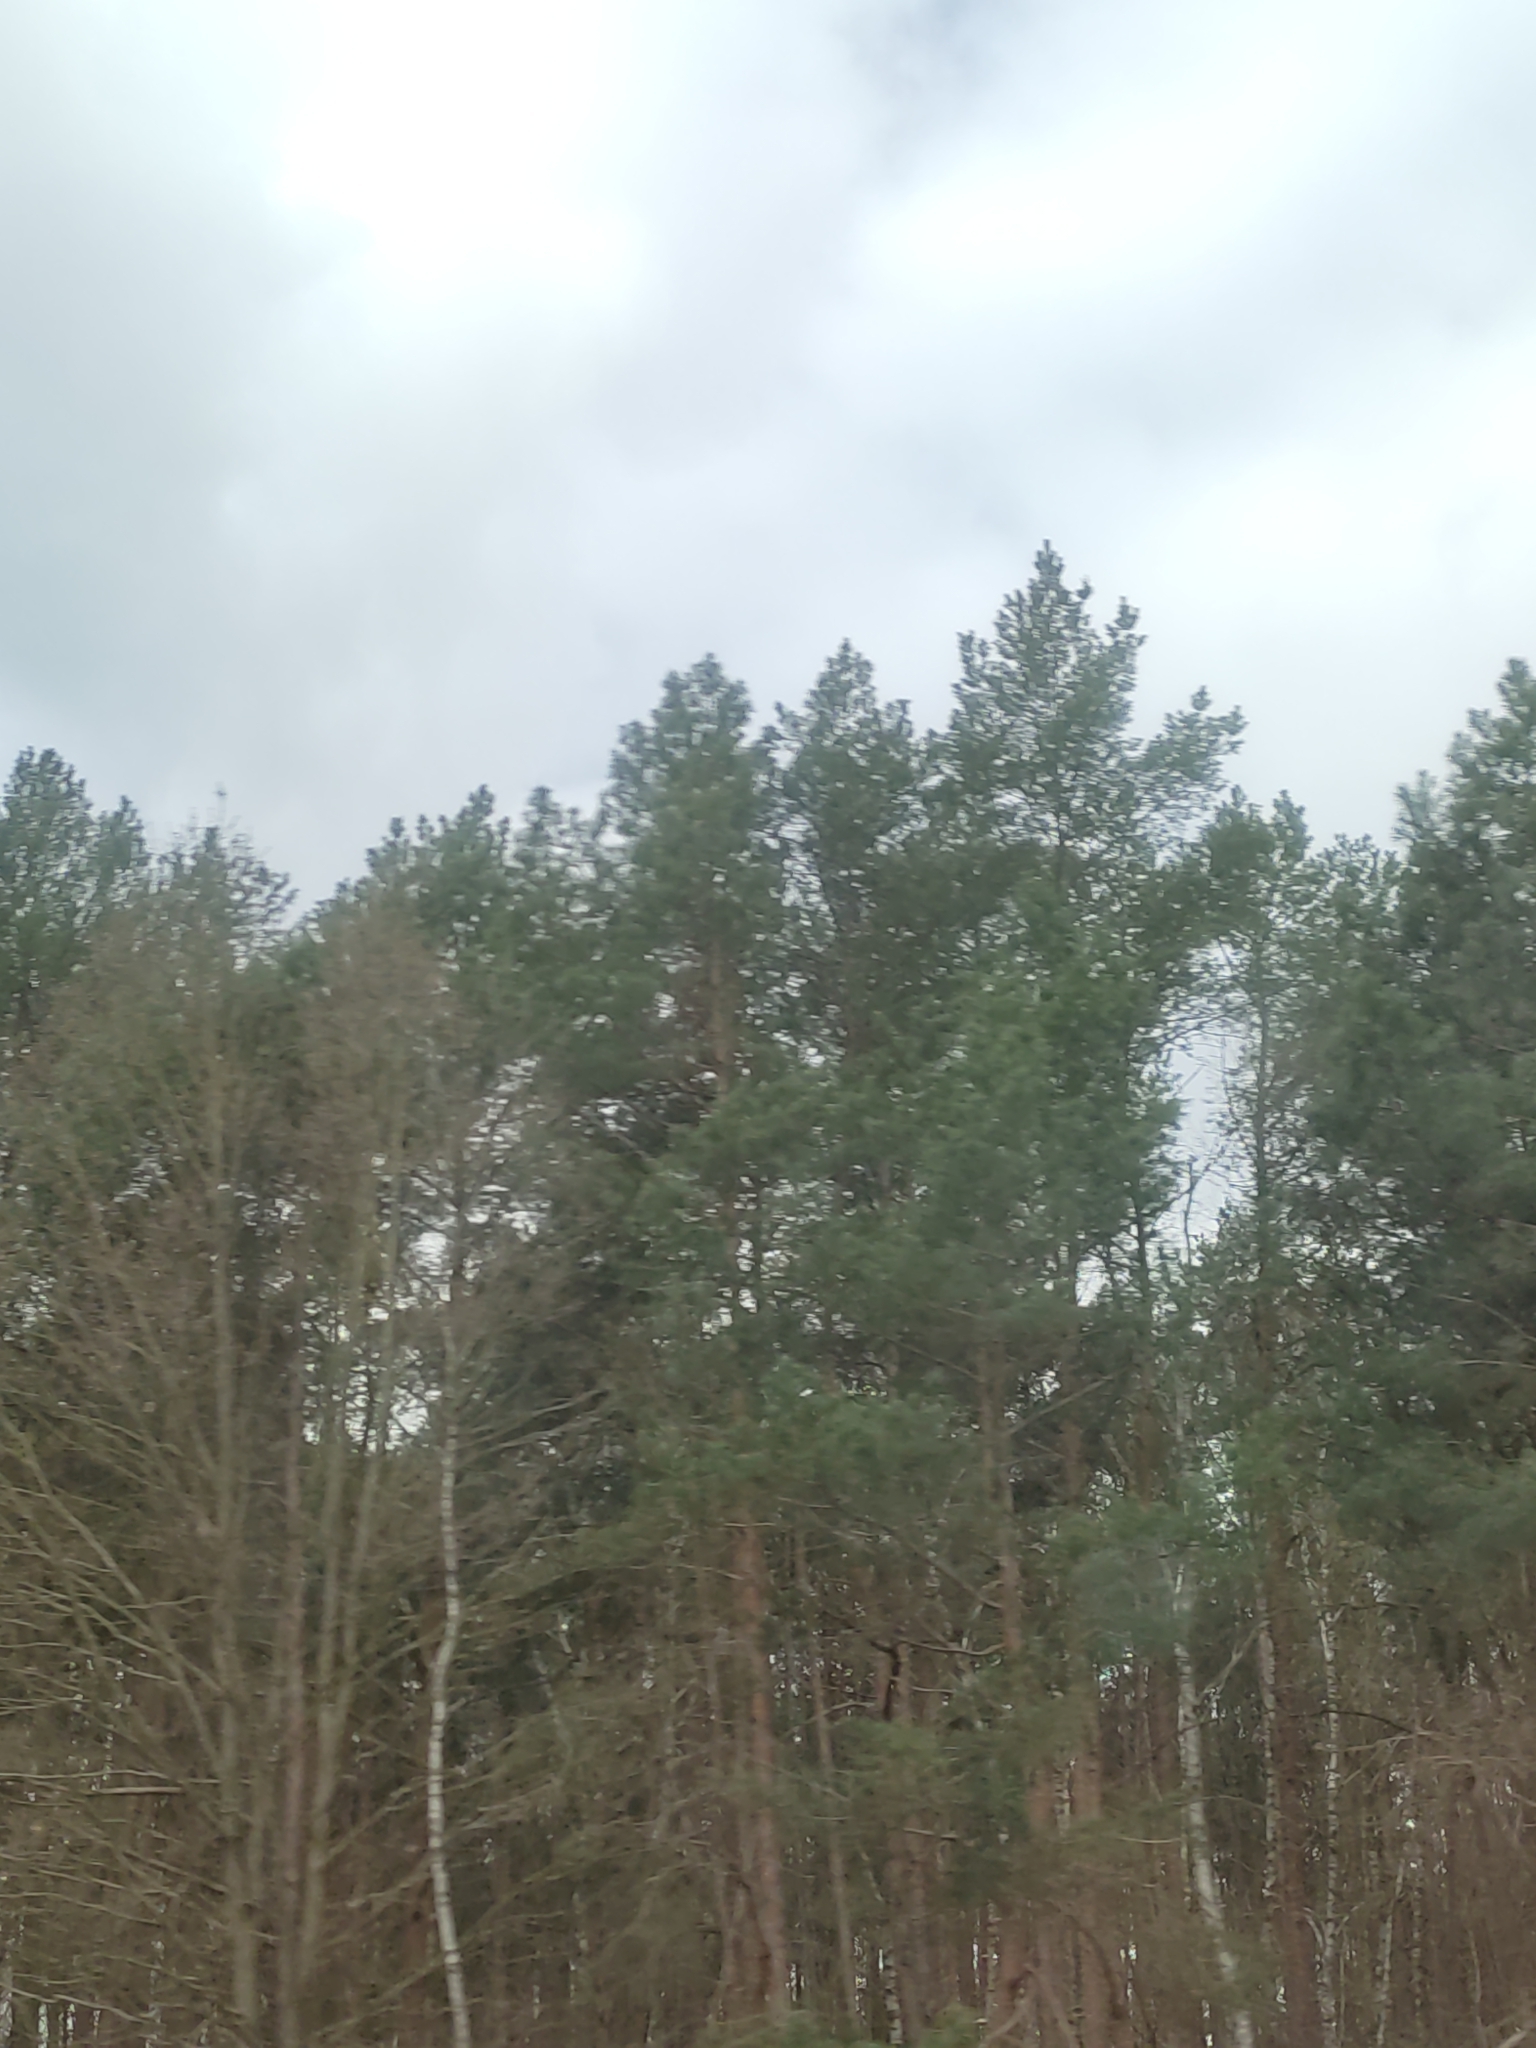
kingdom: Plantae
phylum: Tracheophyta
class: Pinopsida
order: Pinales
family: Pinaceae
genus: Pinus
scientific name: Pinus sylvestris
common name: Scots pine
